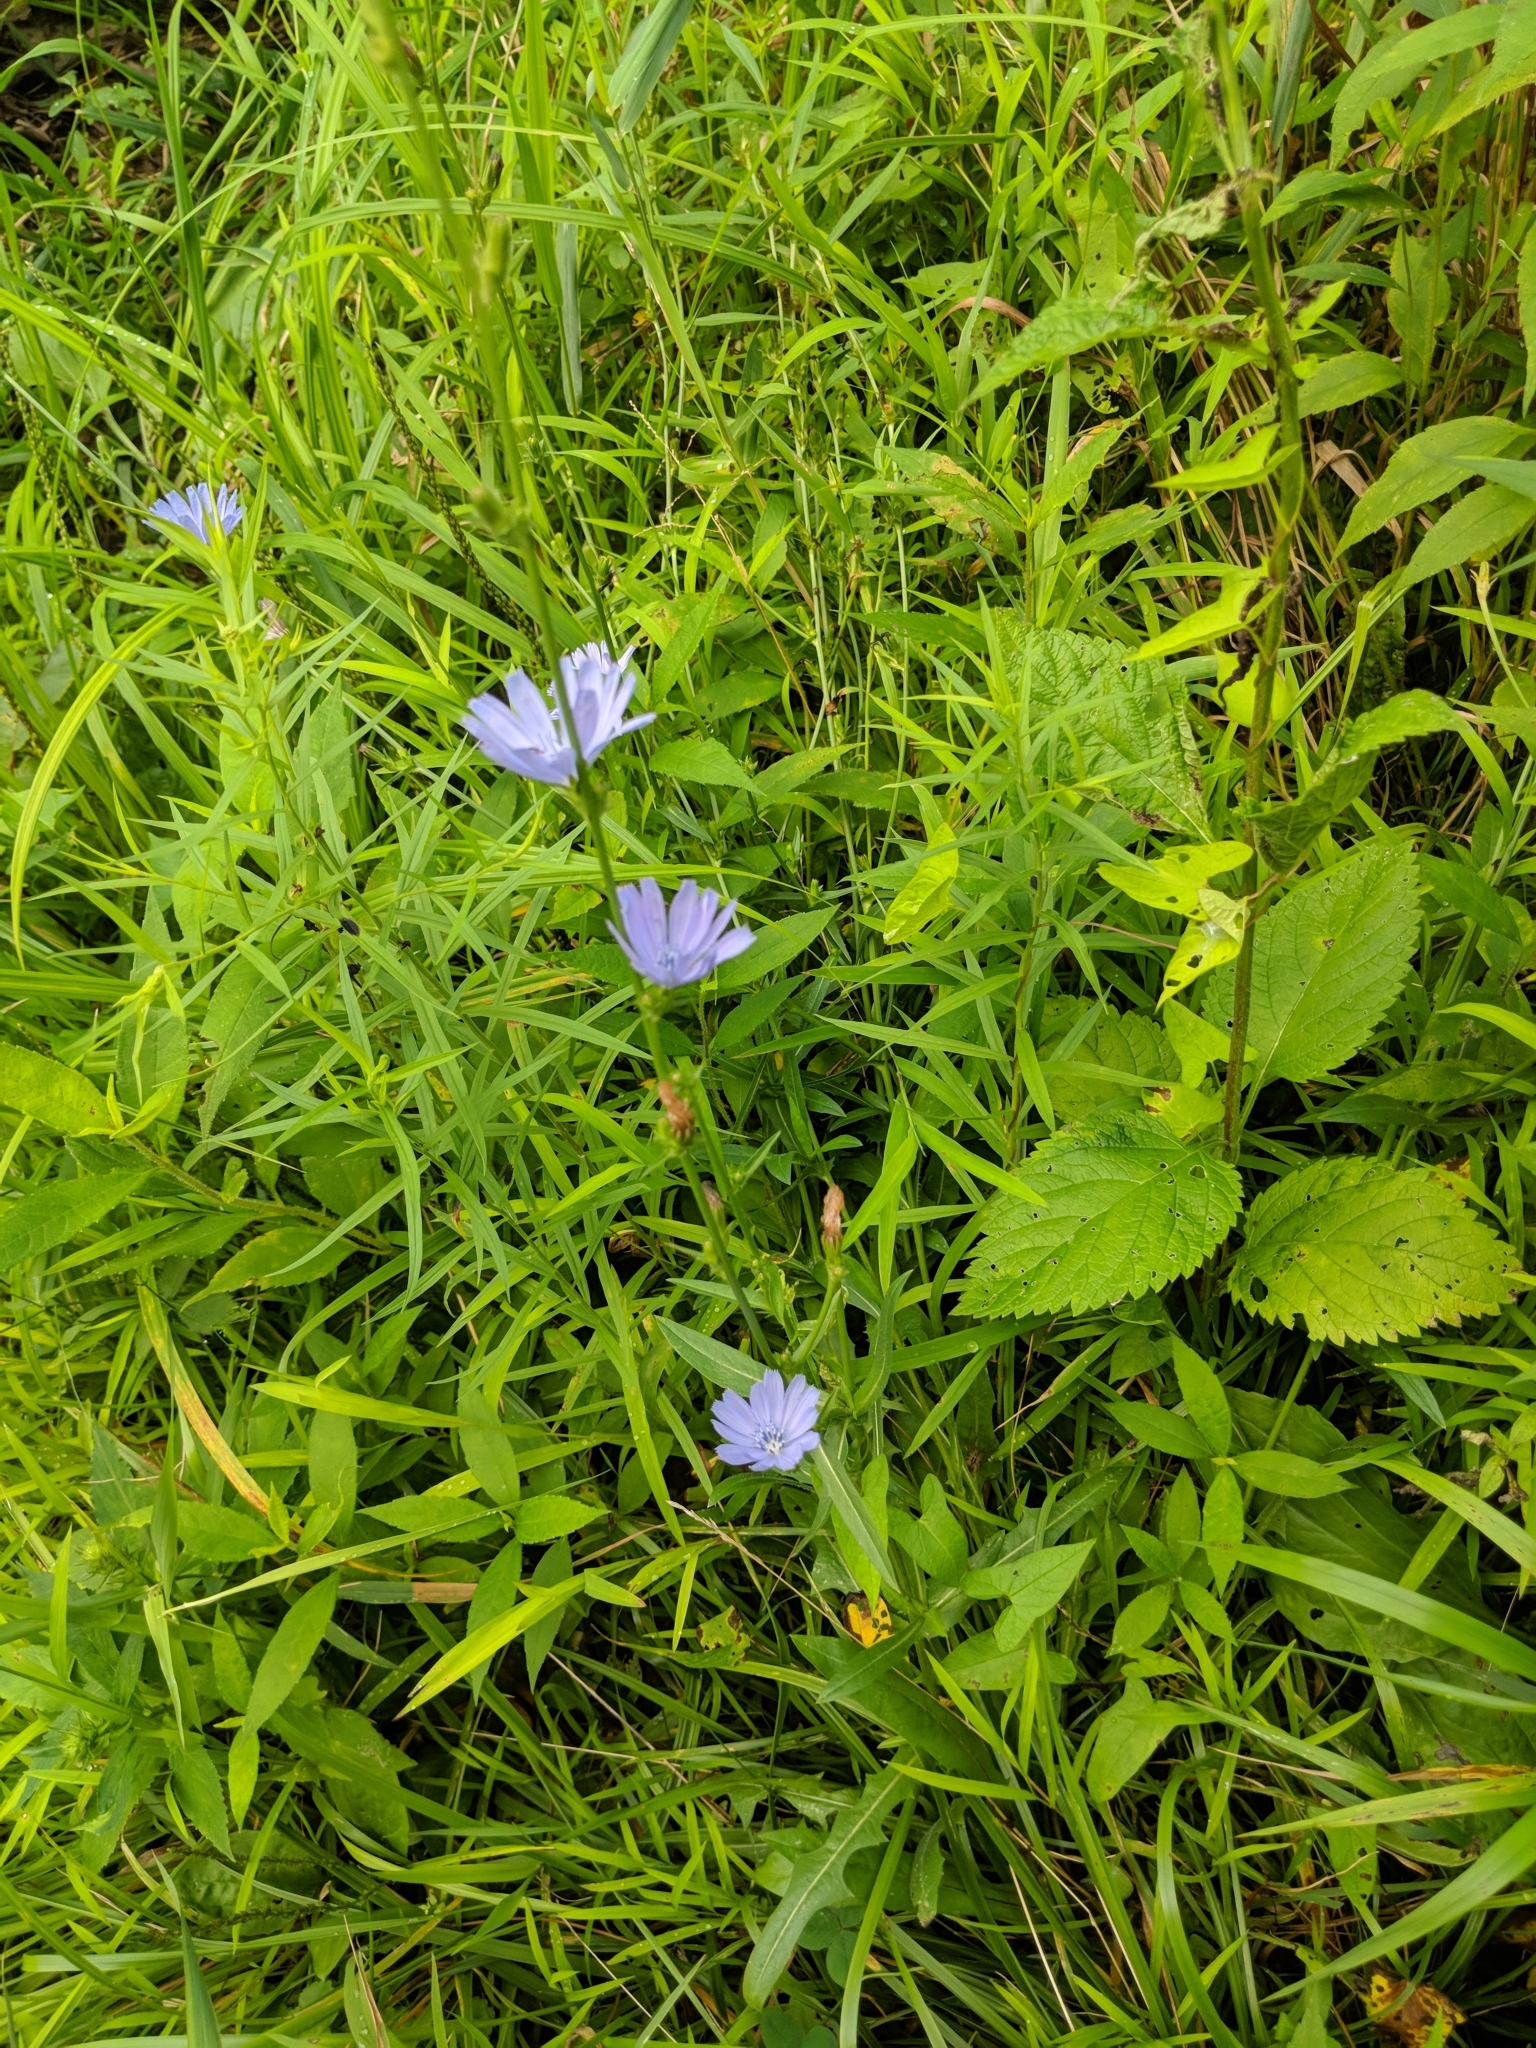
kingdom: Plantae
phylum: Tracheophyta
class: Magnoliopsida
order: Asterales
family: Asteraceae
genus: Cichorium
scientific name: Cichorium intybus
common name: Chicory
